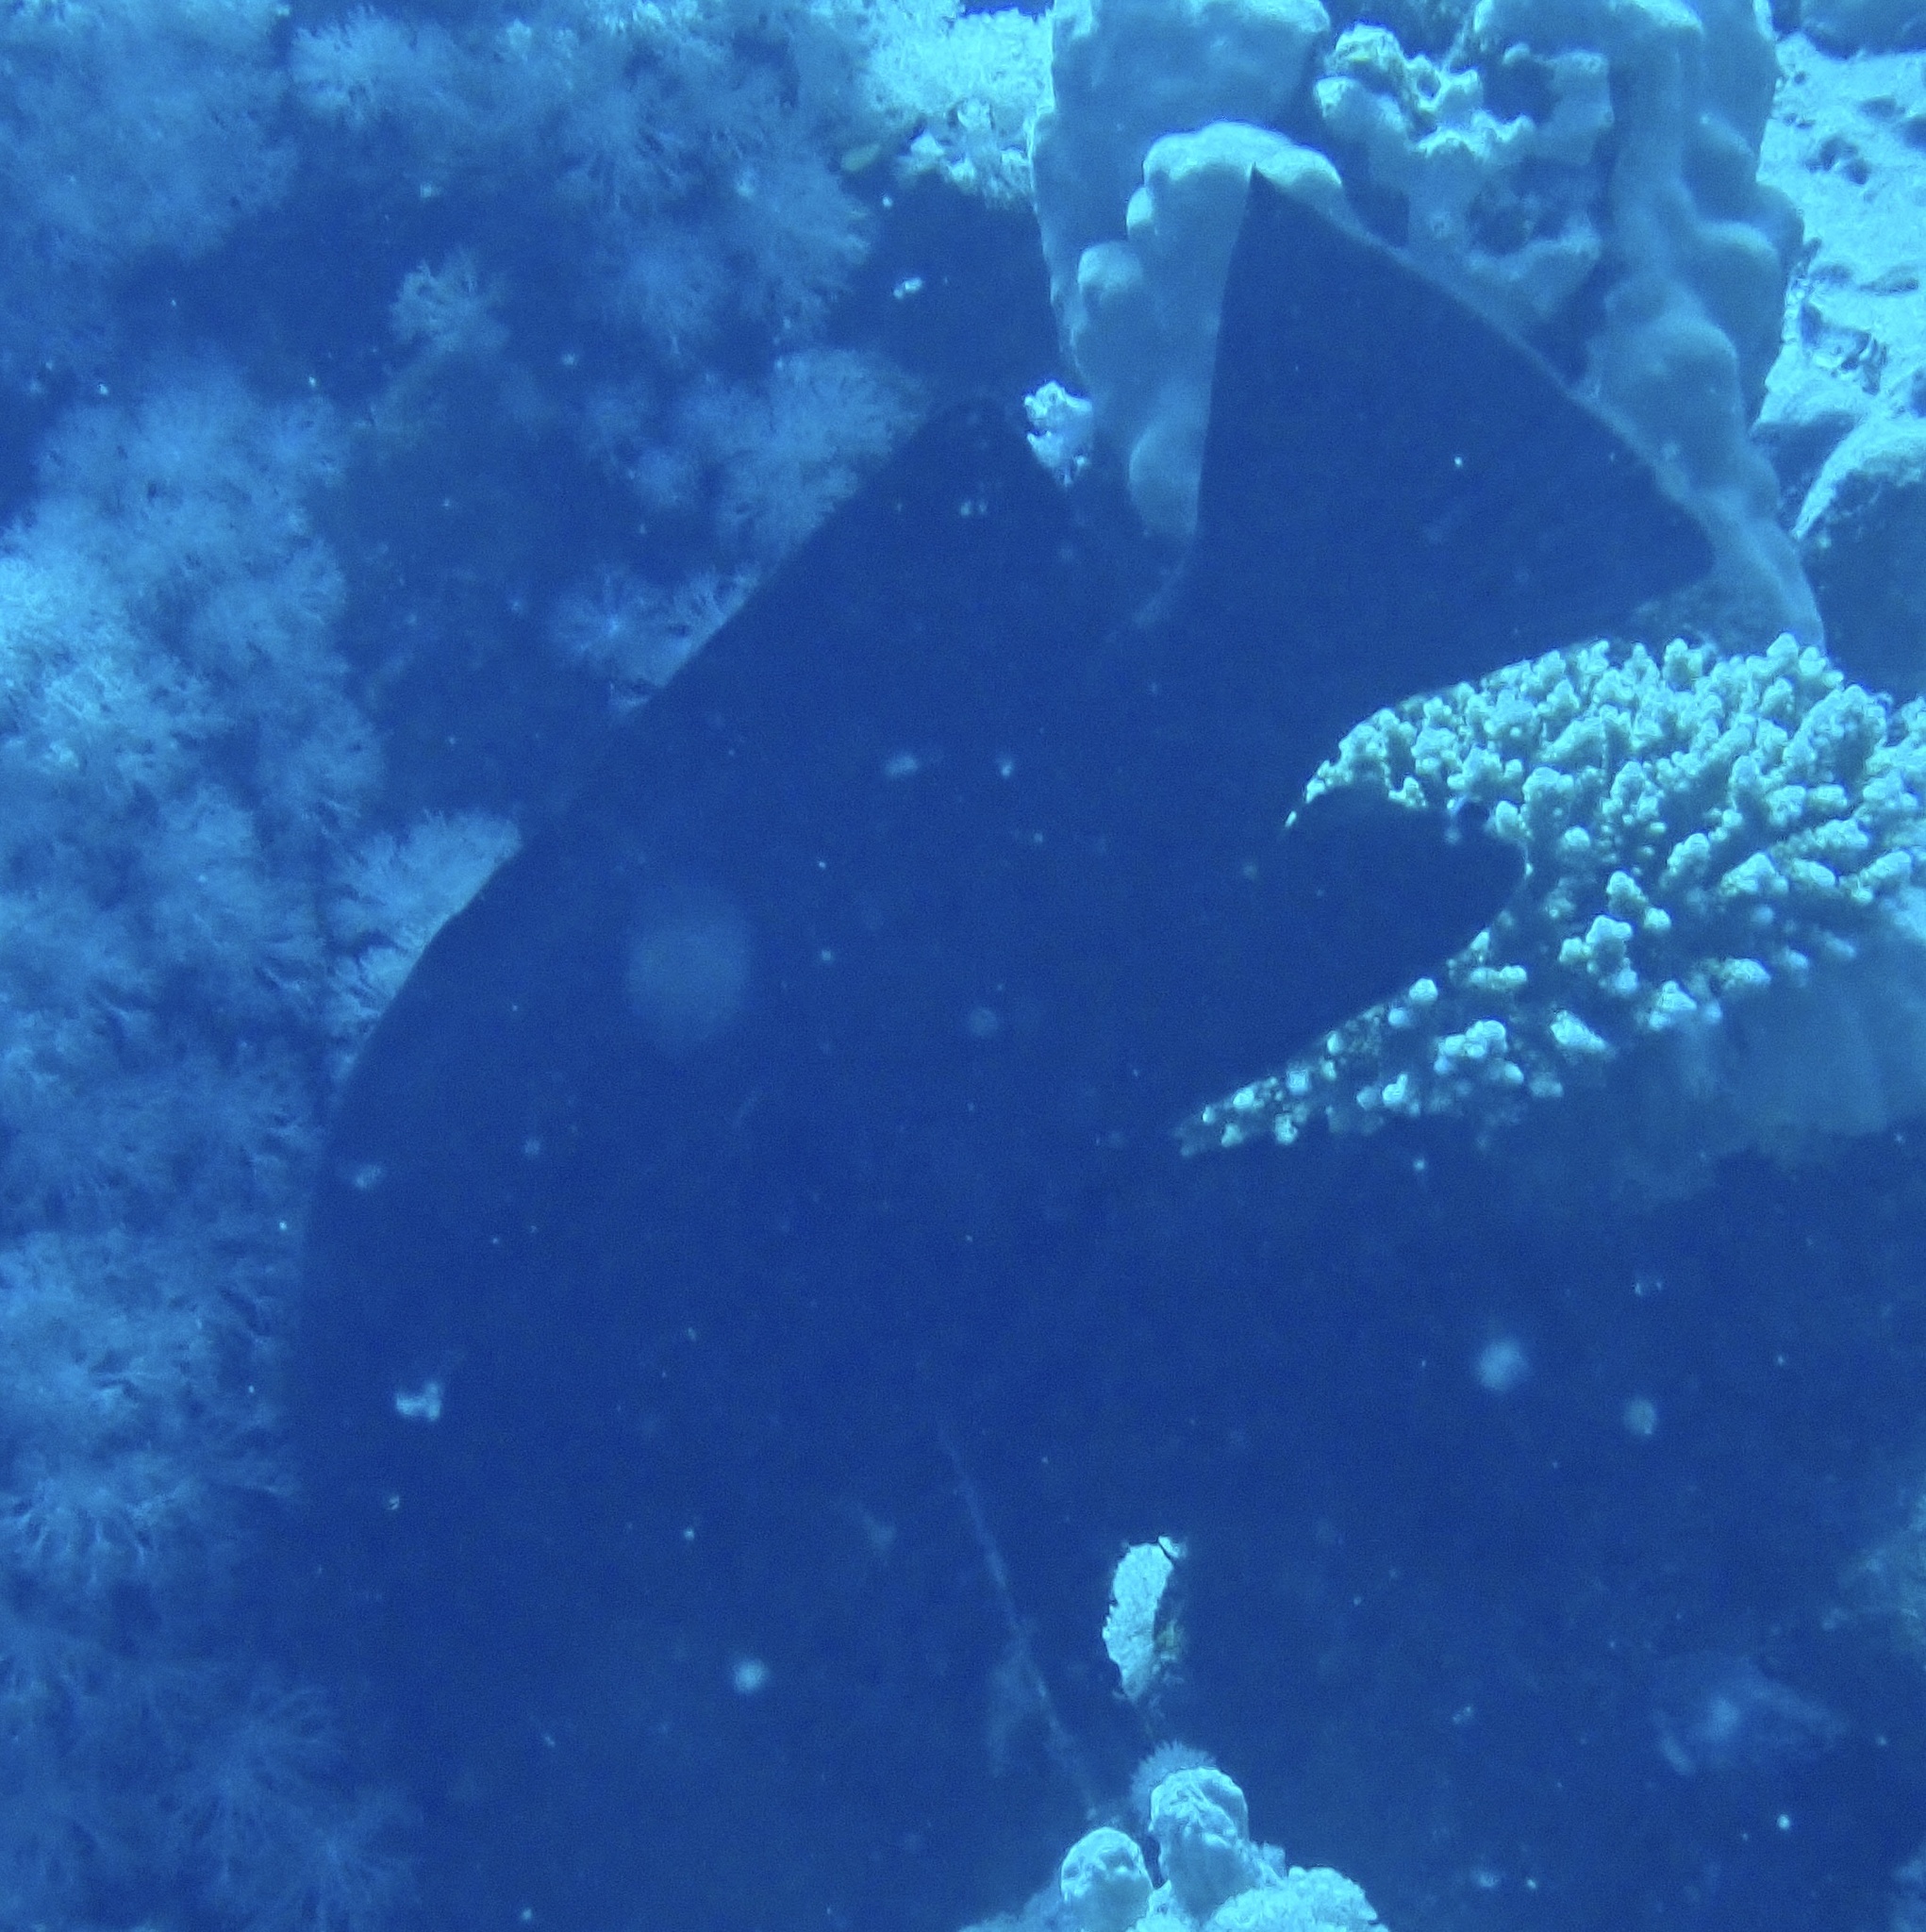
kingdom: Animalia
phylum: Chordata
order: Perciformes
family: Serranidae
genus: Aethaloperca
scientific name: Aethaloperca rogaa
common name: Redmouth grouper
